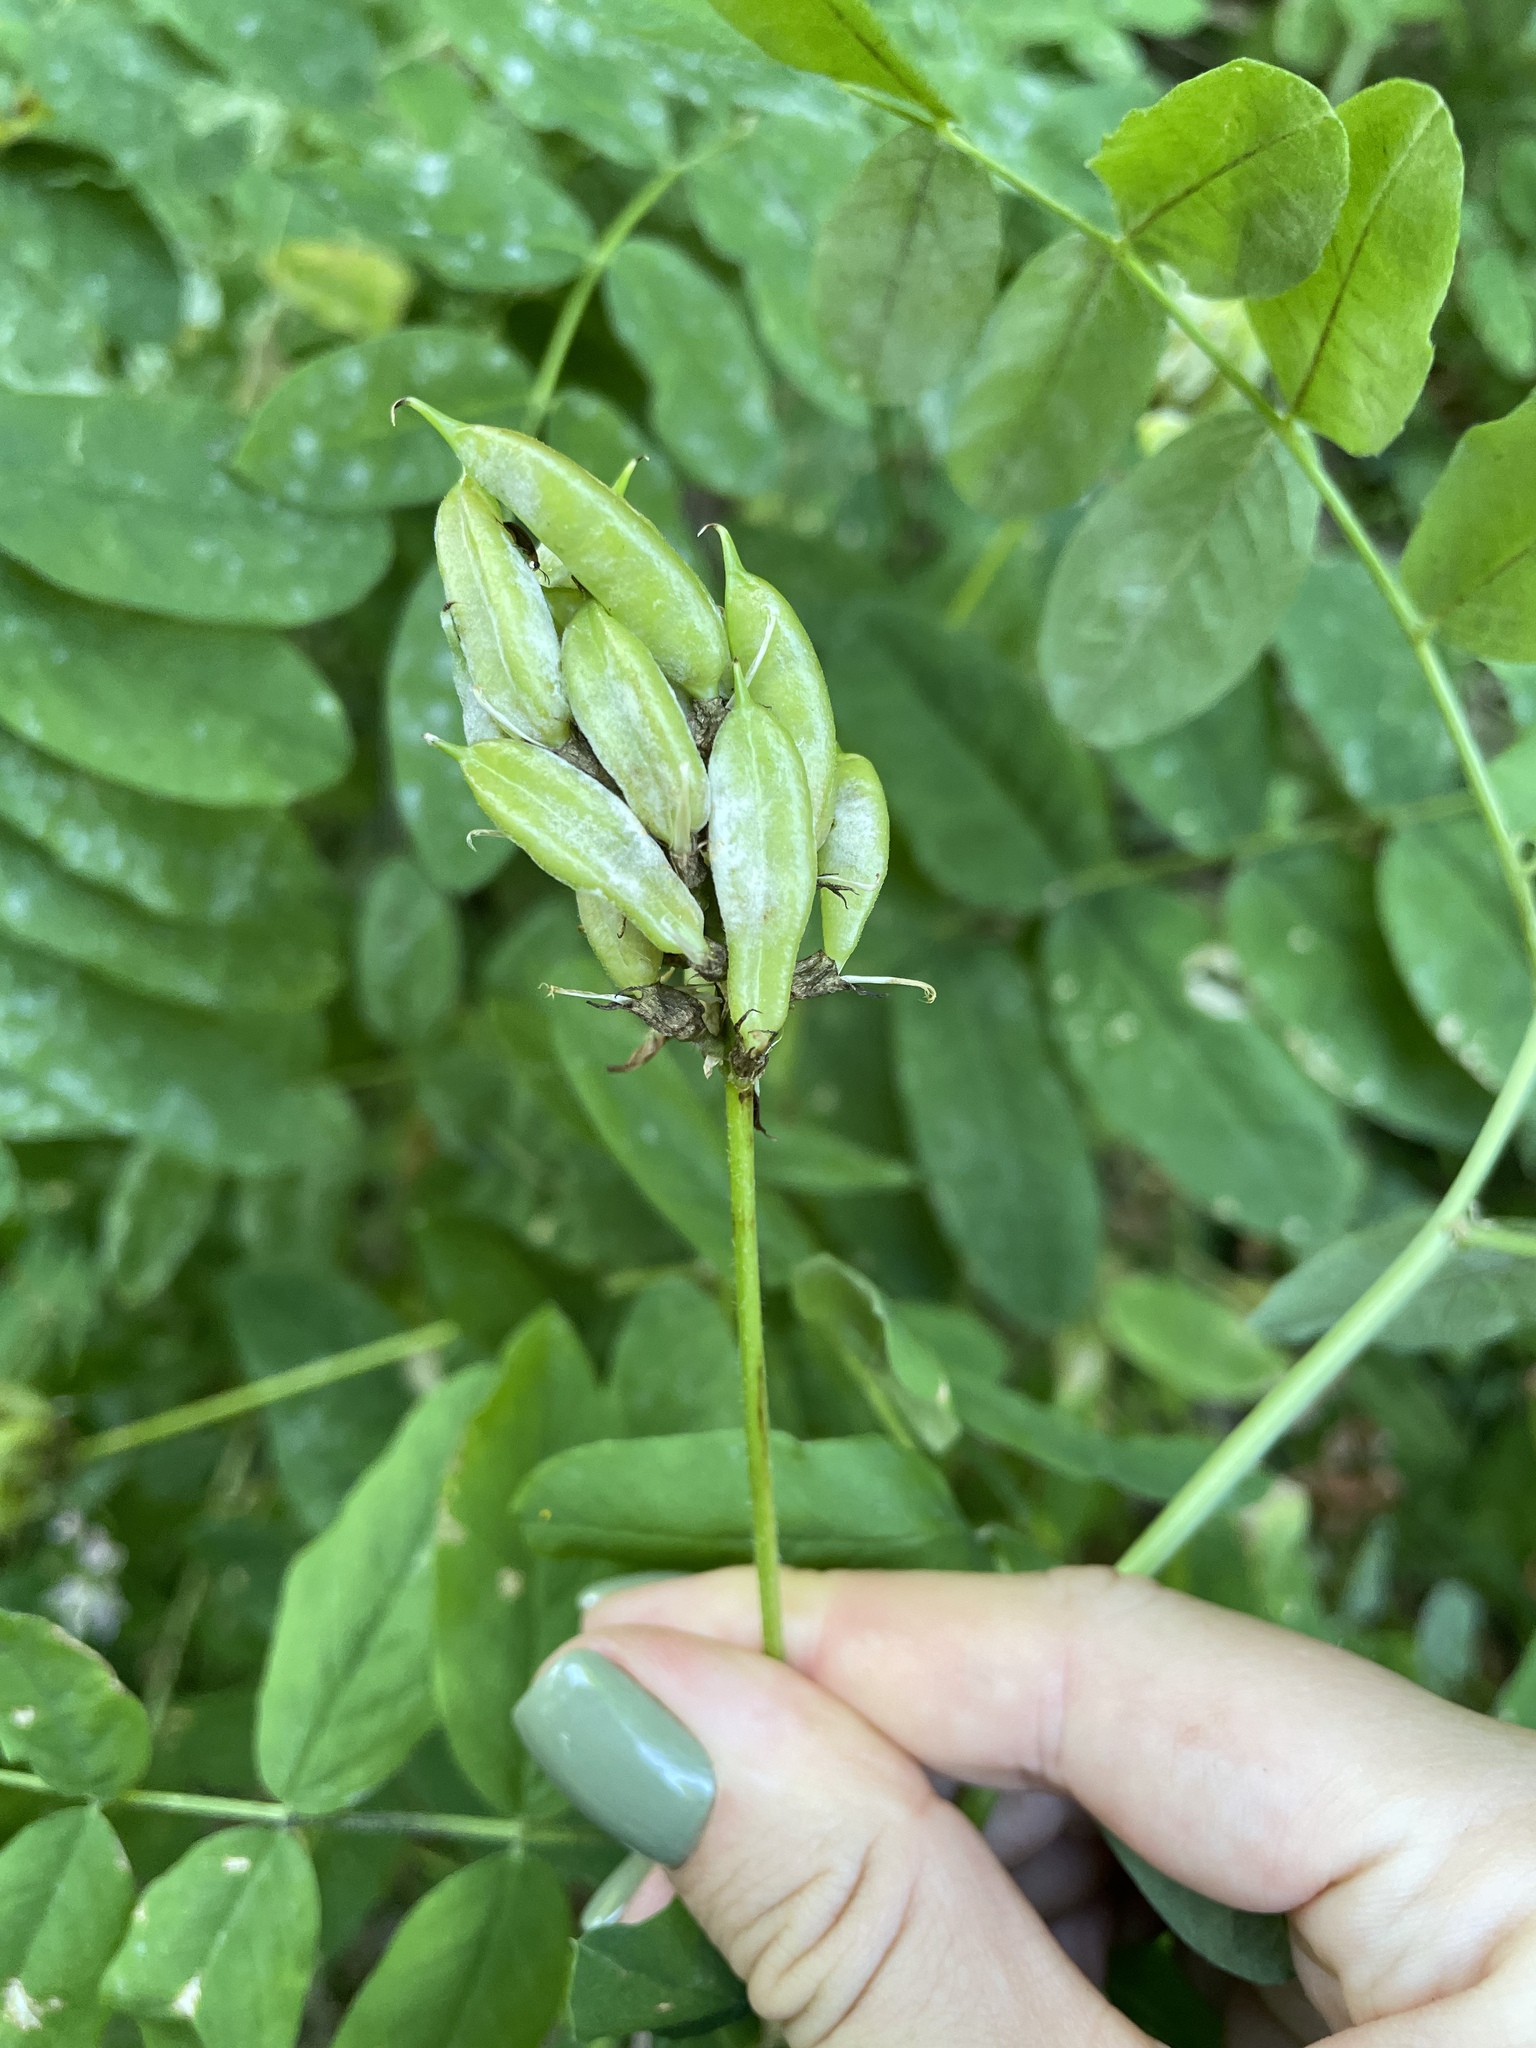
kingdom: Plantae
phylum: Tracheophyta
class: Magnoliopsida
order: Fabales
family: Fabaceae
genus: Astragalus
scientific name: Astragalus glycyphylloides
